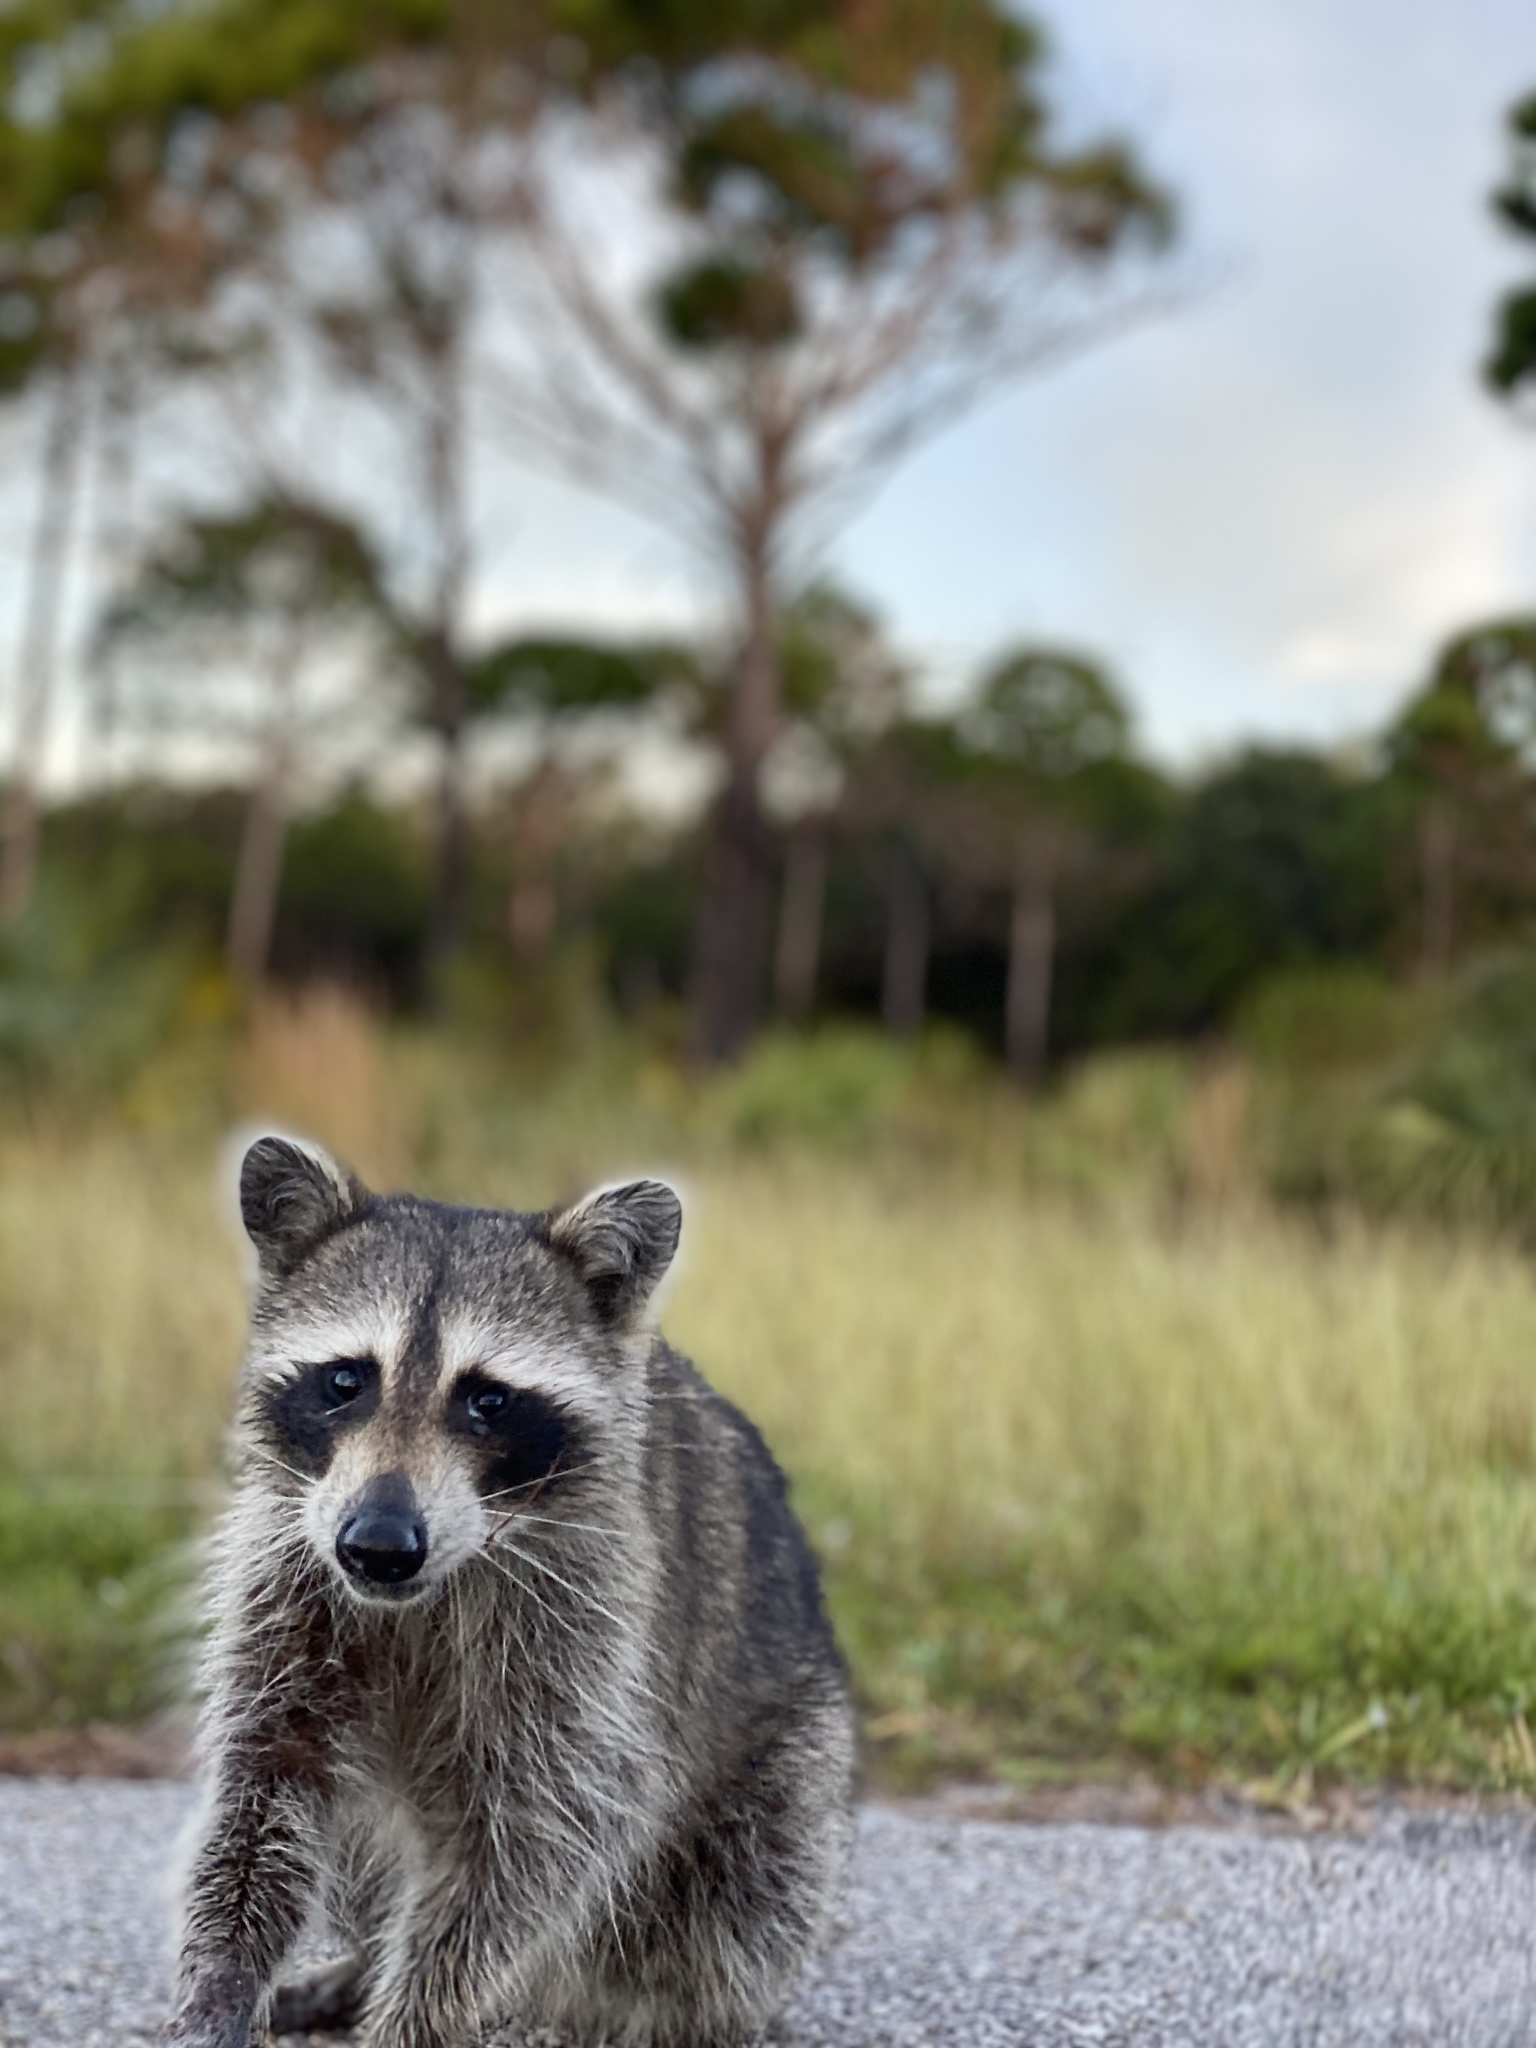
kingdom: Animalia
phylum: Chordata
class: Mammalia
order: Carnivora
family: Procyonidae
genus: Procyon
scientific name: Procyon lotor
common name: Raccoon
